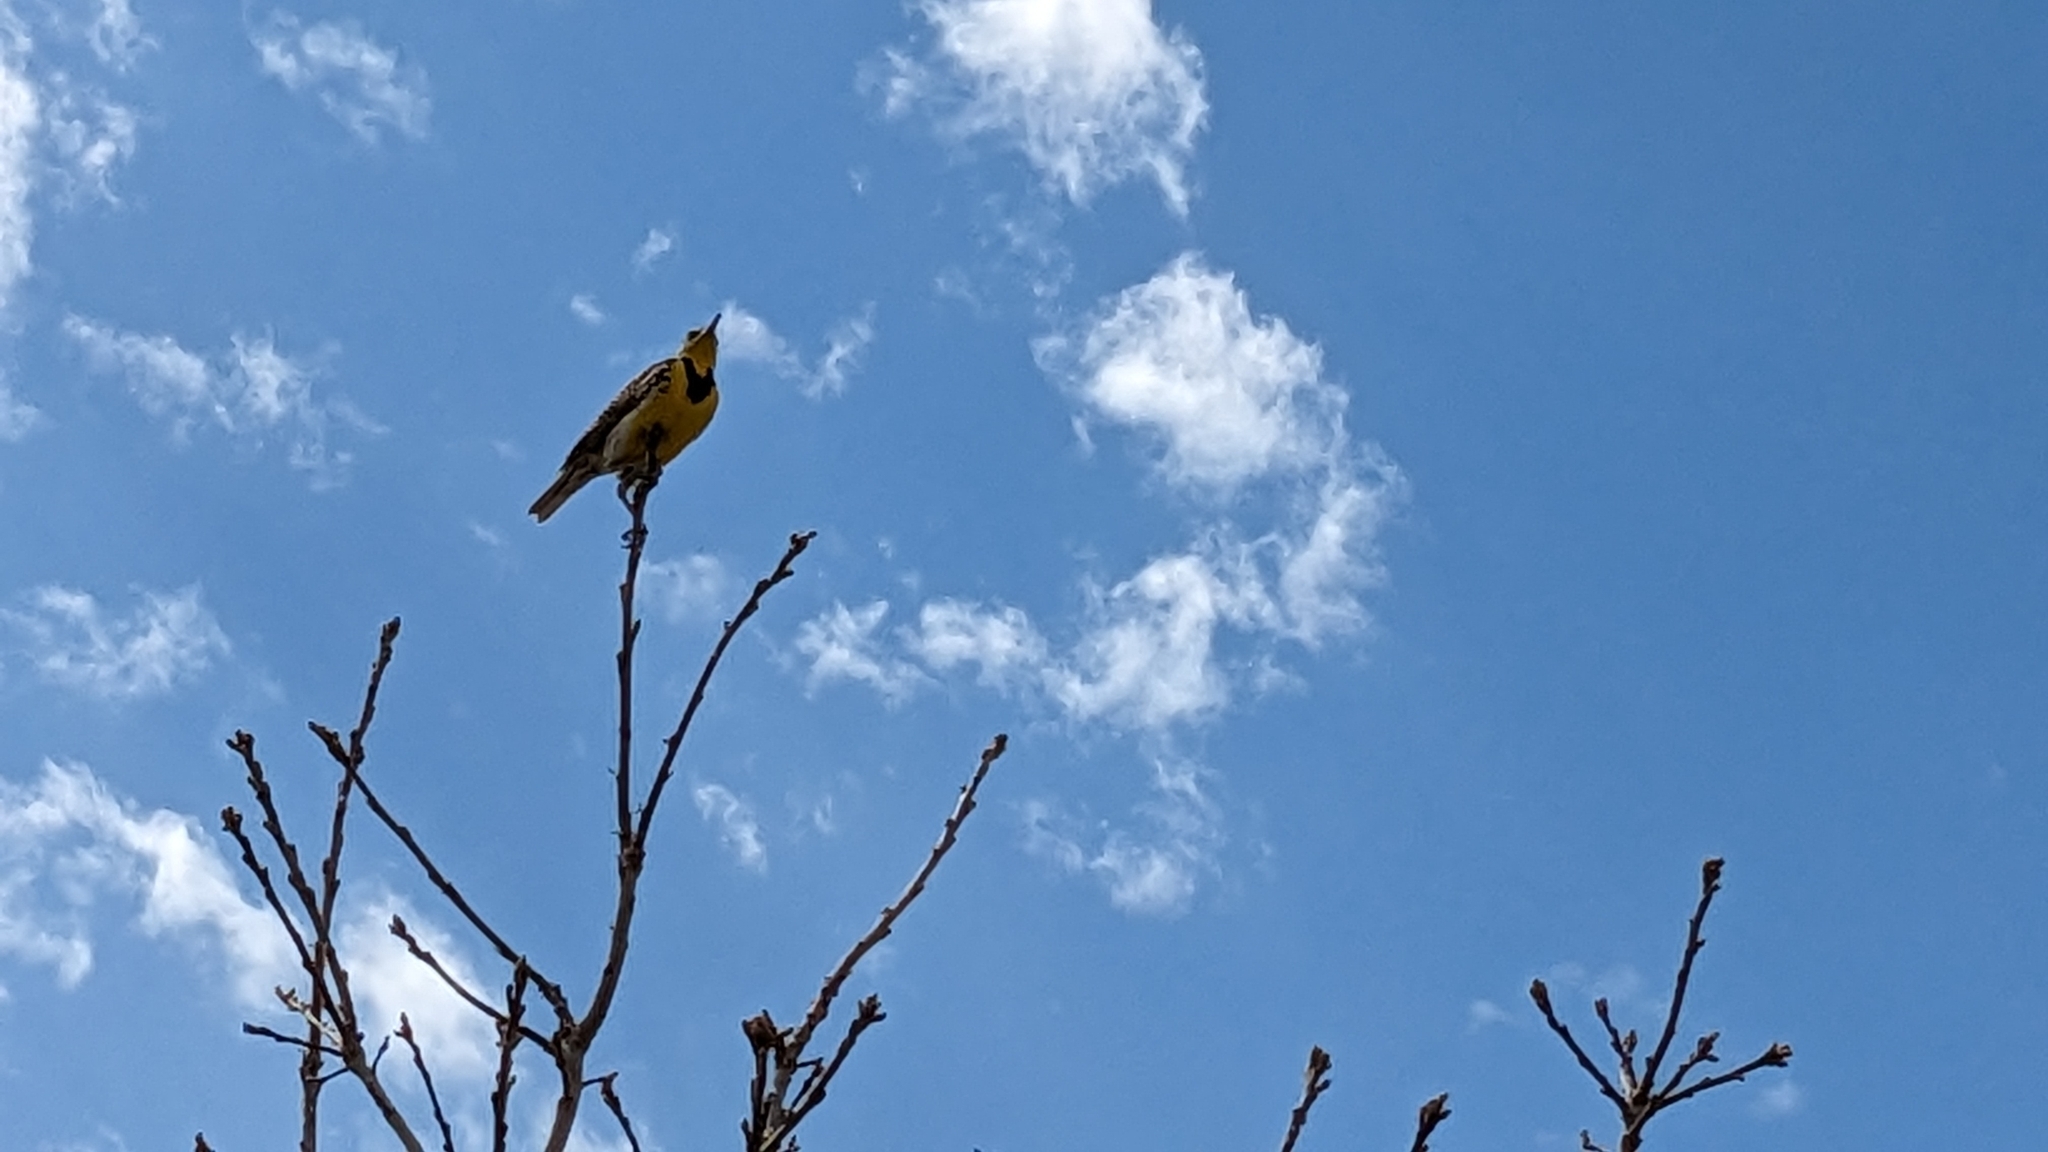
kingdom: Animalia
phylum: Chordata
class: Aves
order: Passeriformes
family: Icteridae
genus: Sturnella
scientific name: Sturnella neglecta
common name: Western meadowlark
